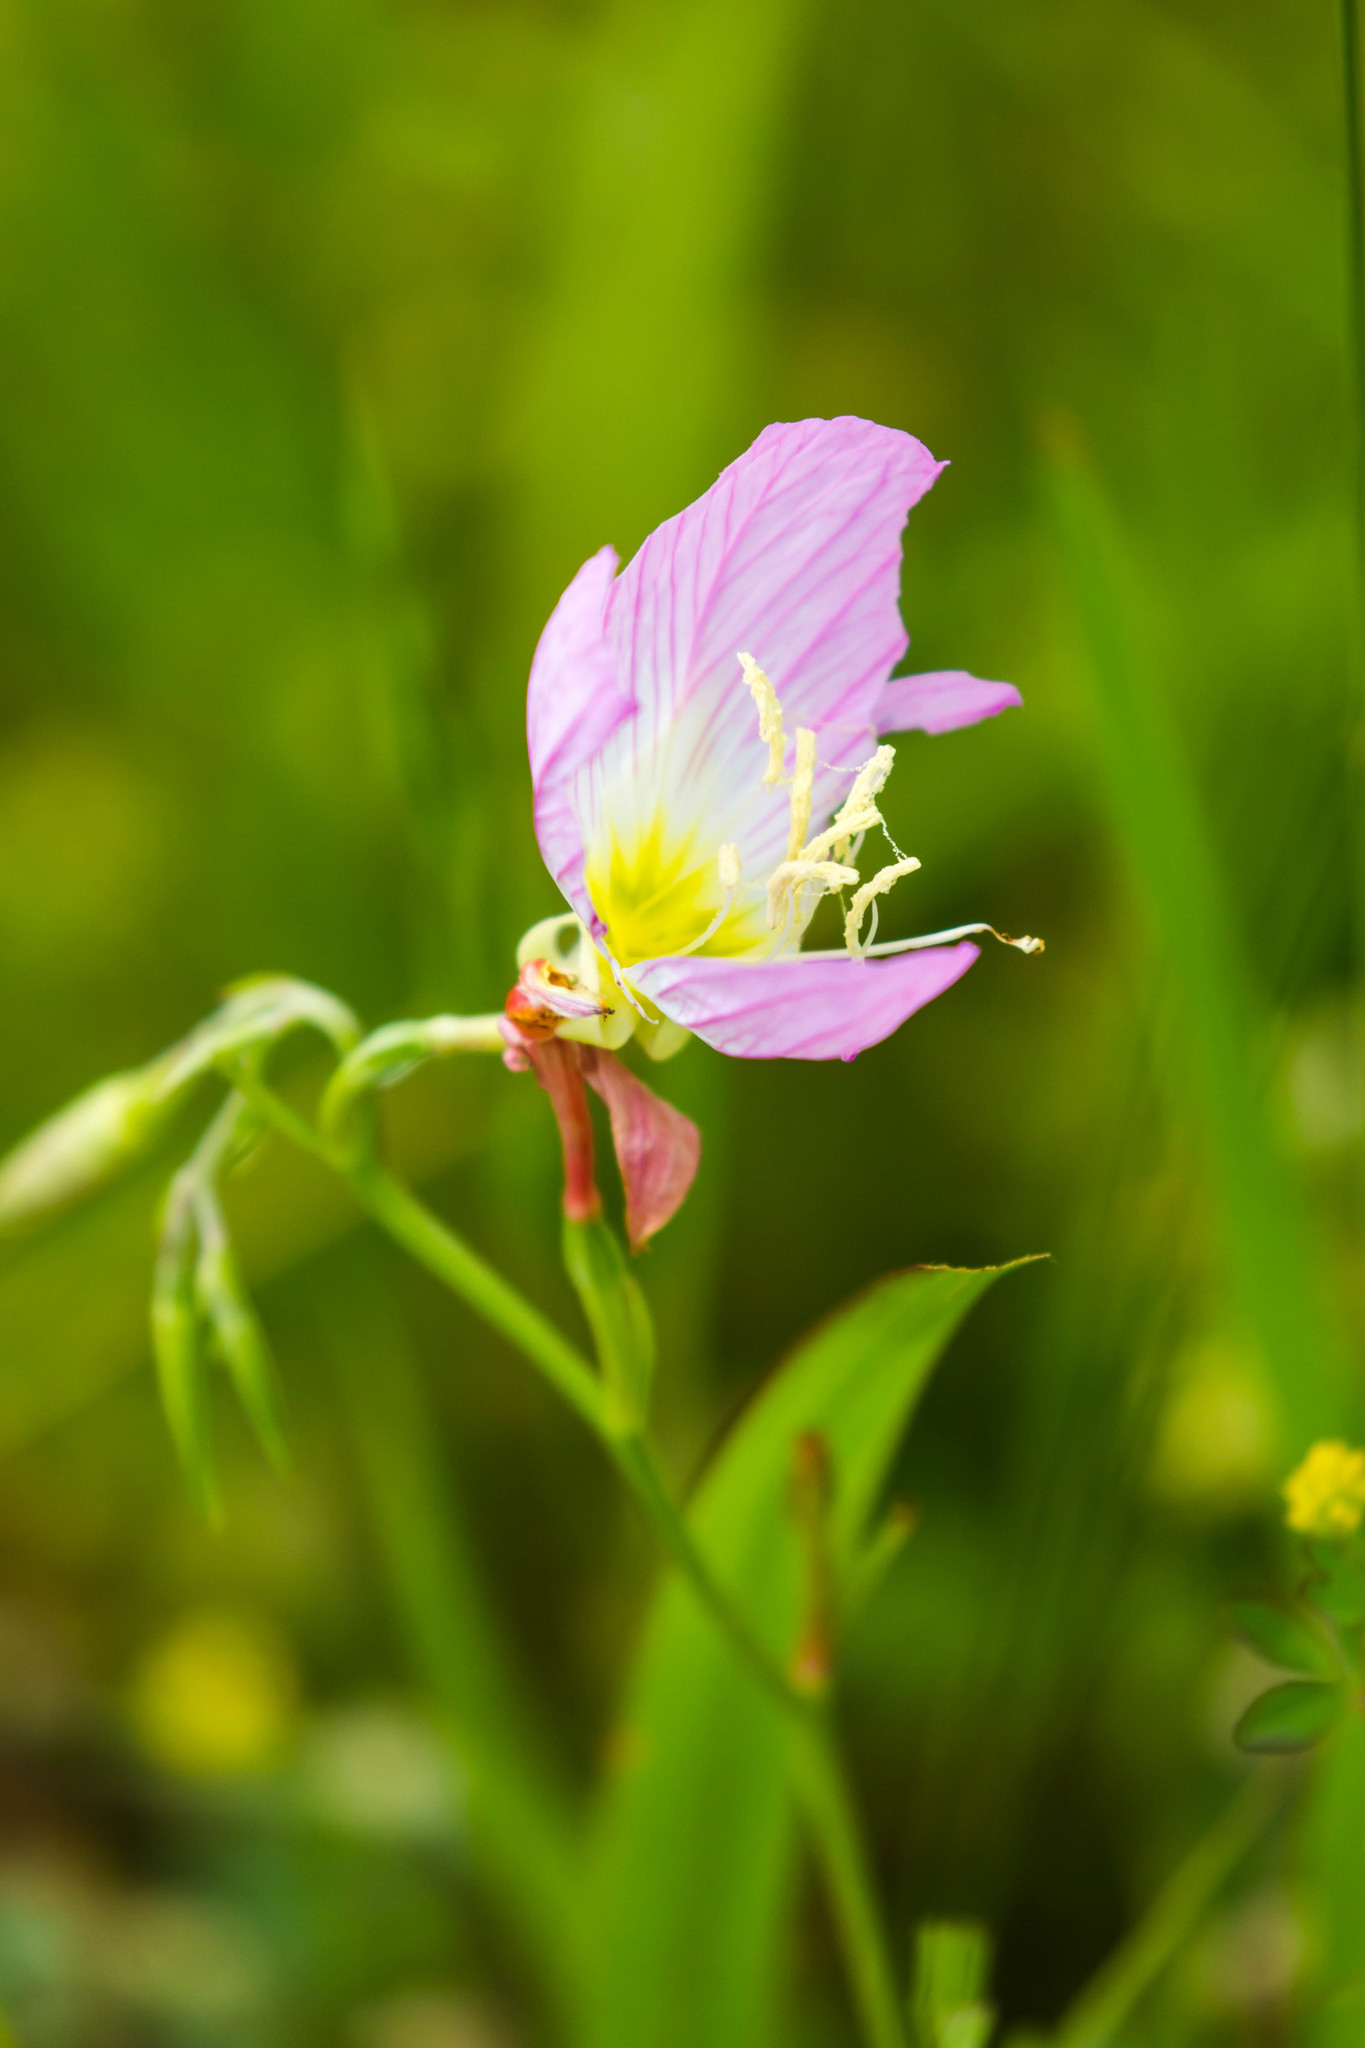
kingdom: Plantae
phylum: Tracheophyta
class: Magnoliopsida
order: Myrtales
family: Onagraceae
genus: Oenothera
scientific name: Oenothera speciosa
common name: White evening-primrose
